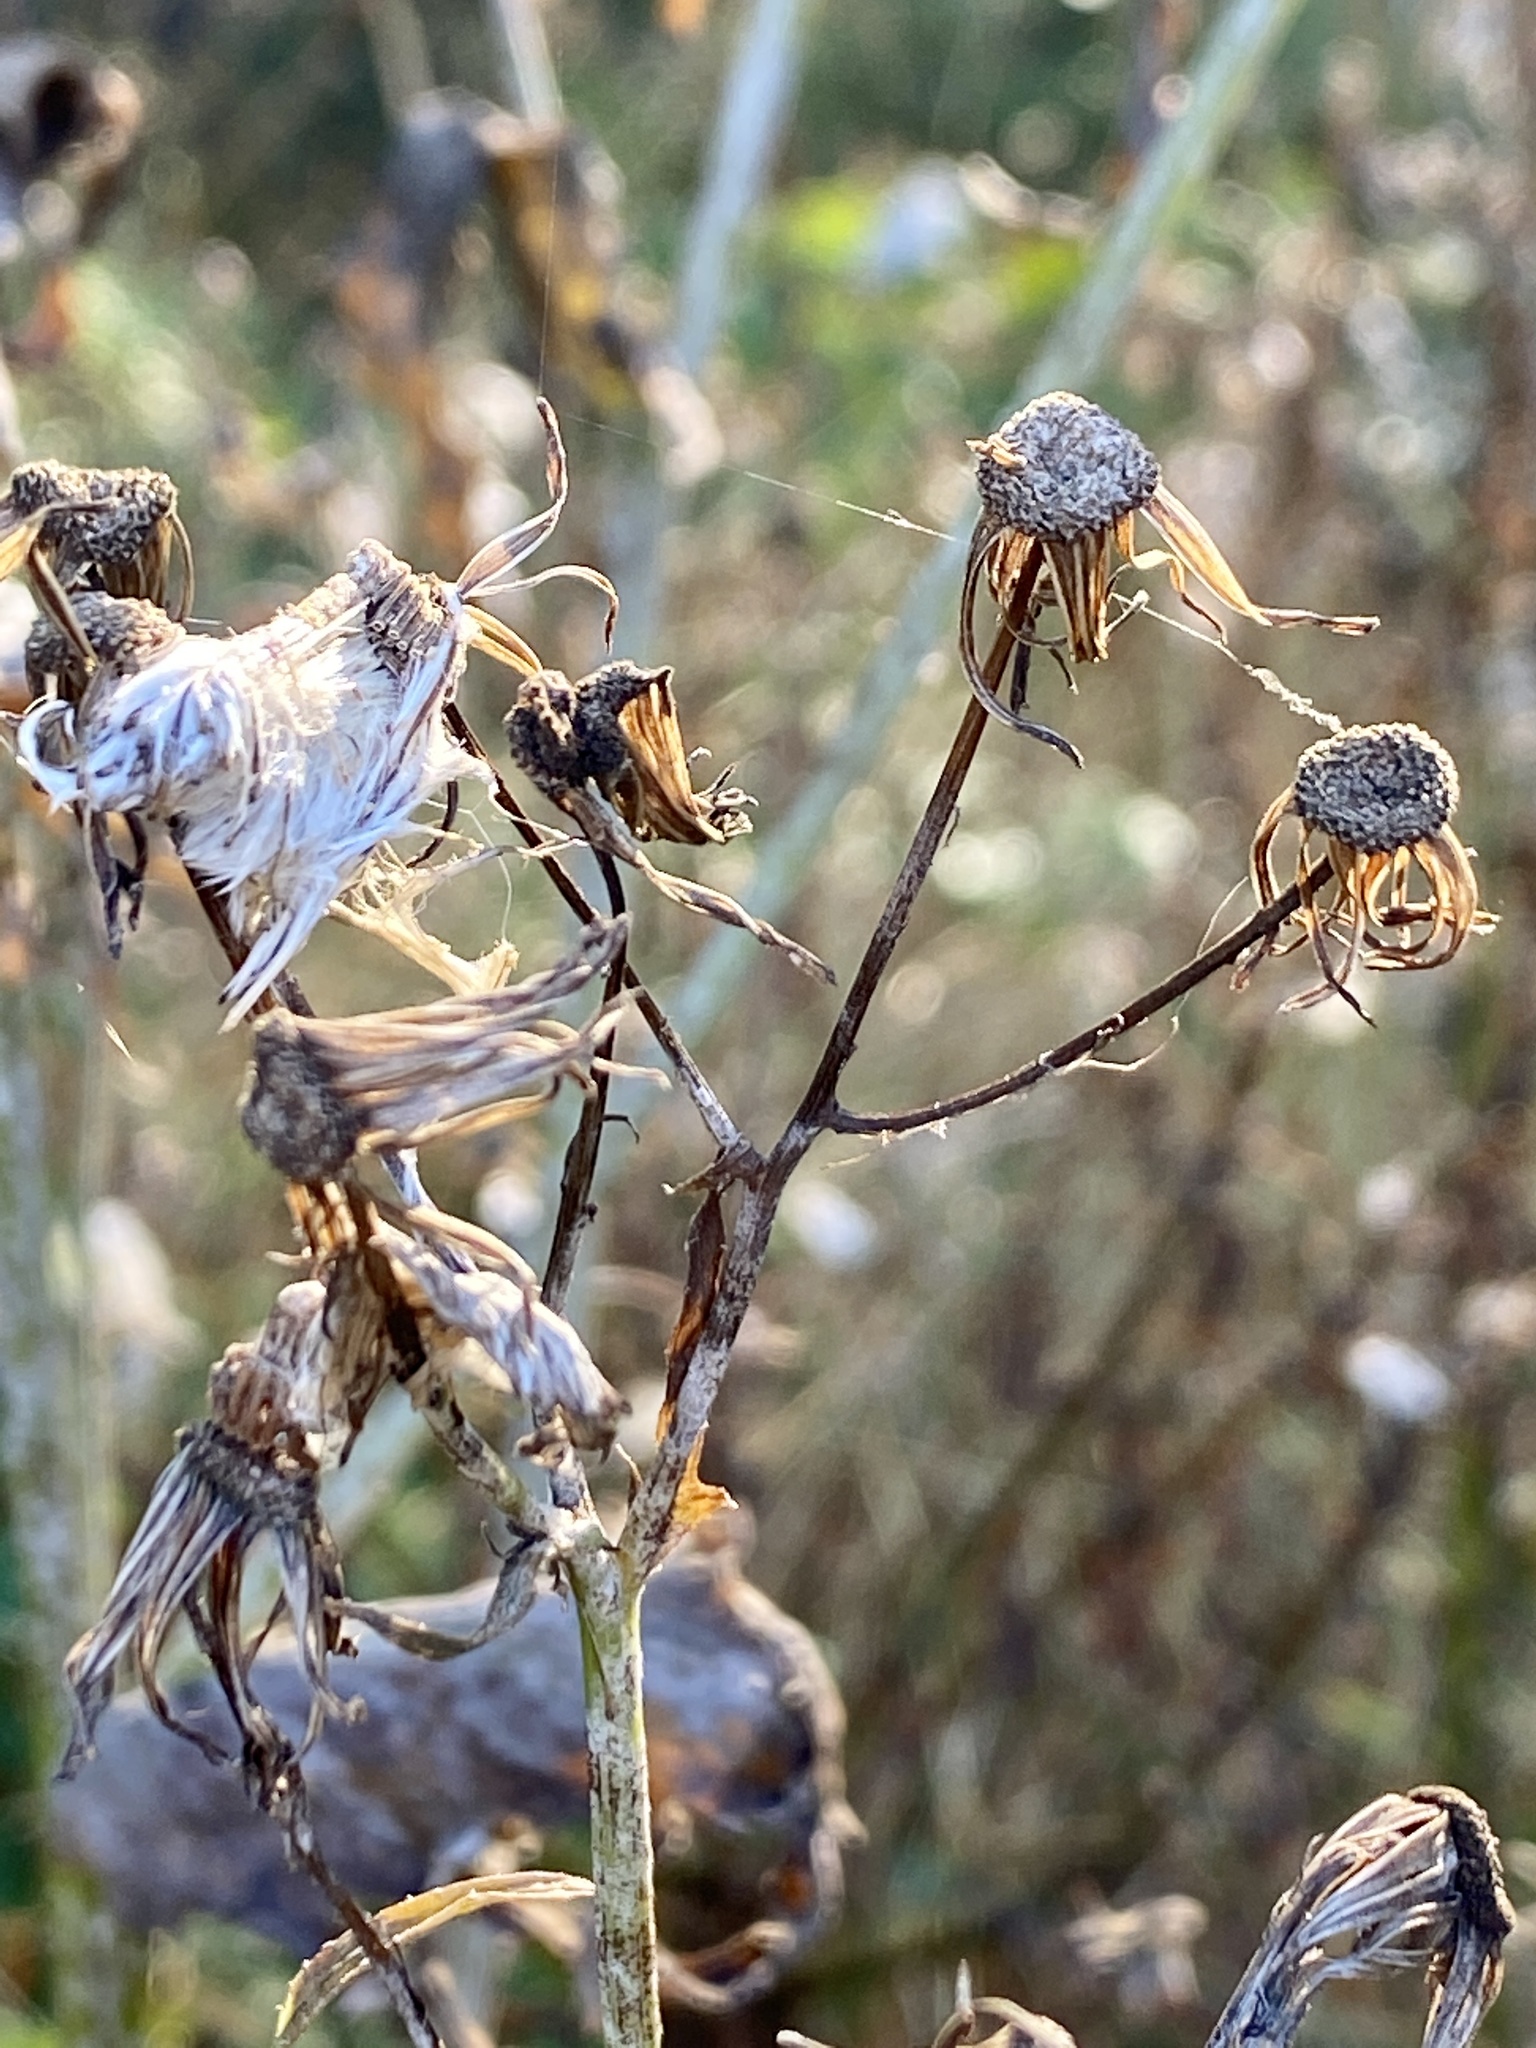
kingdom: Plantae
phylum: Tracheophyta
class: Magnoliopsida
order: Asterales
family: Asteraceae
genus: Erechtites
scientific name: Erechtites hieraciifolius
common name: American burnweed
